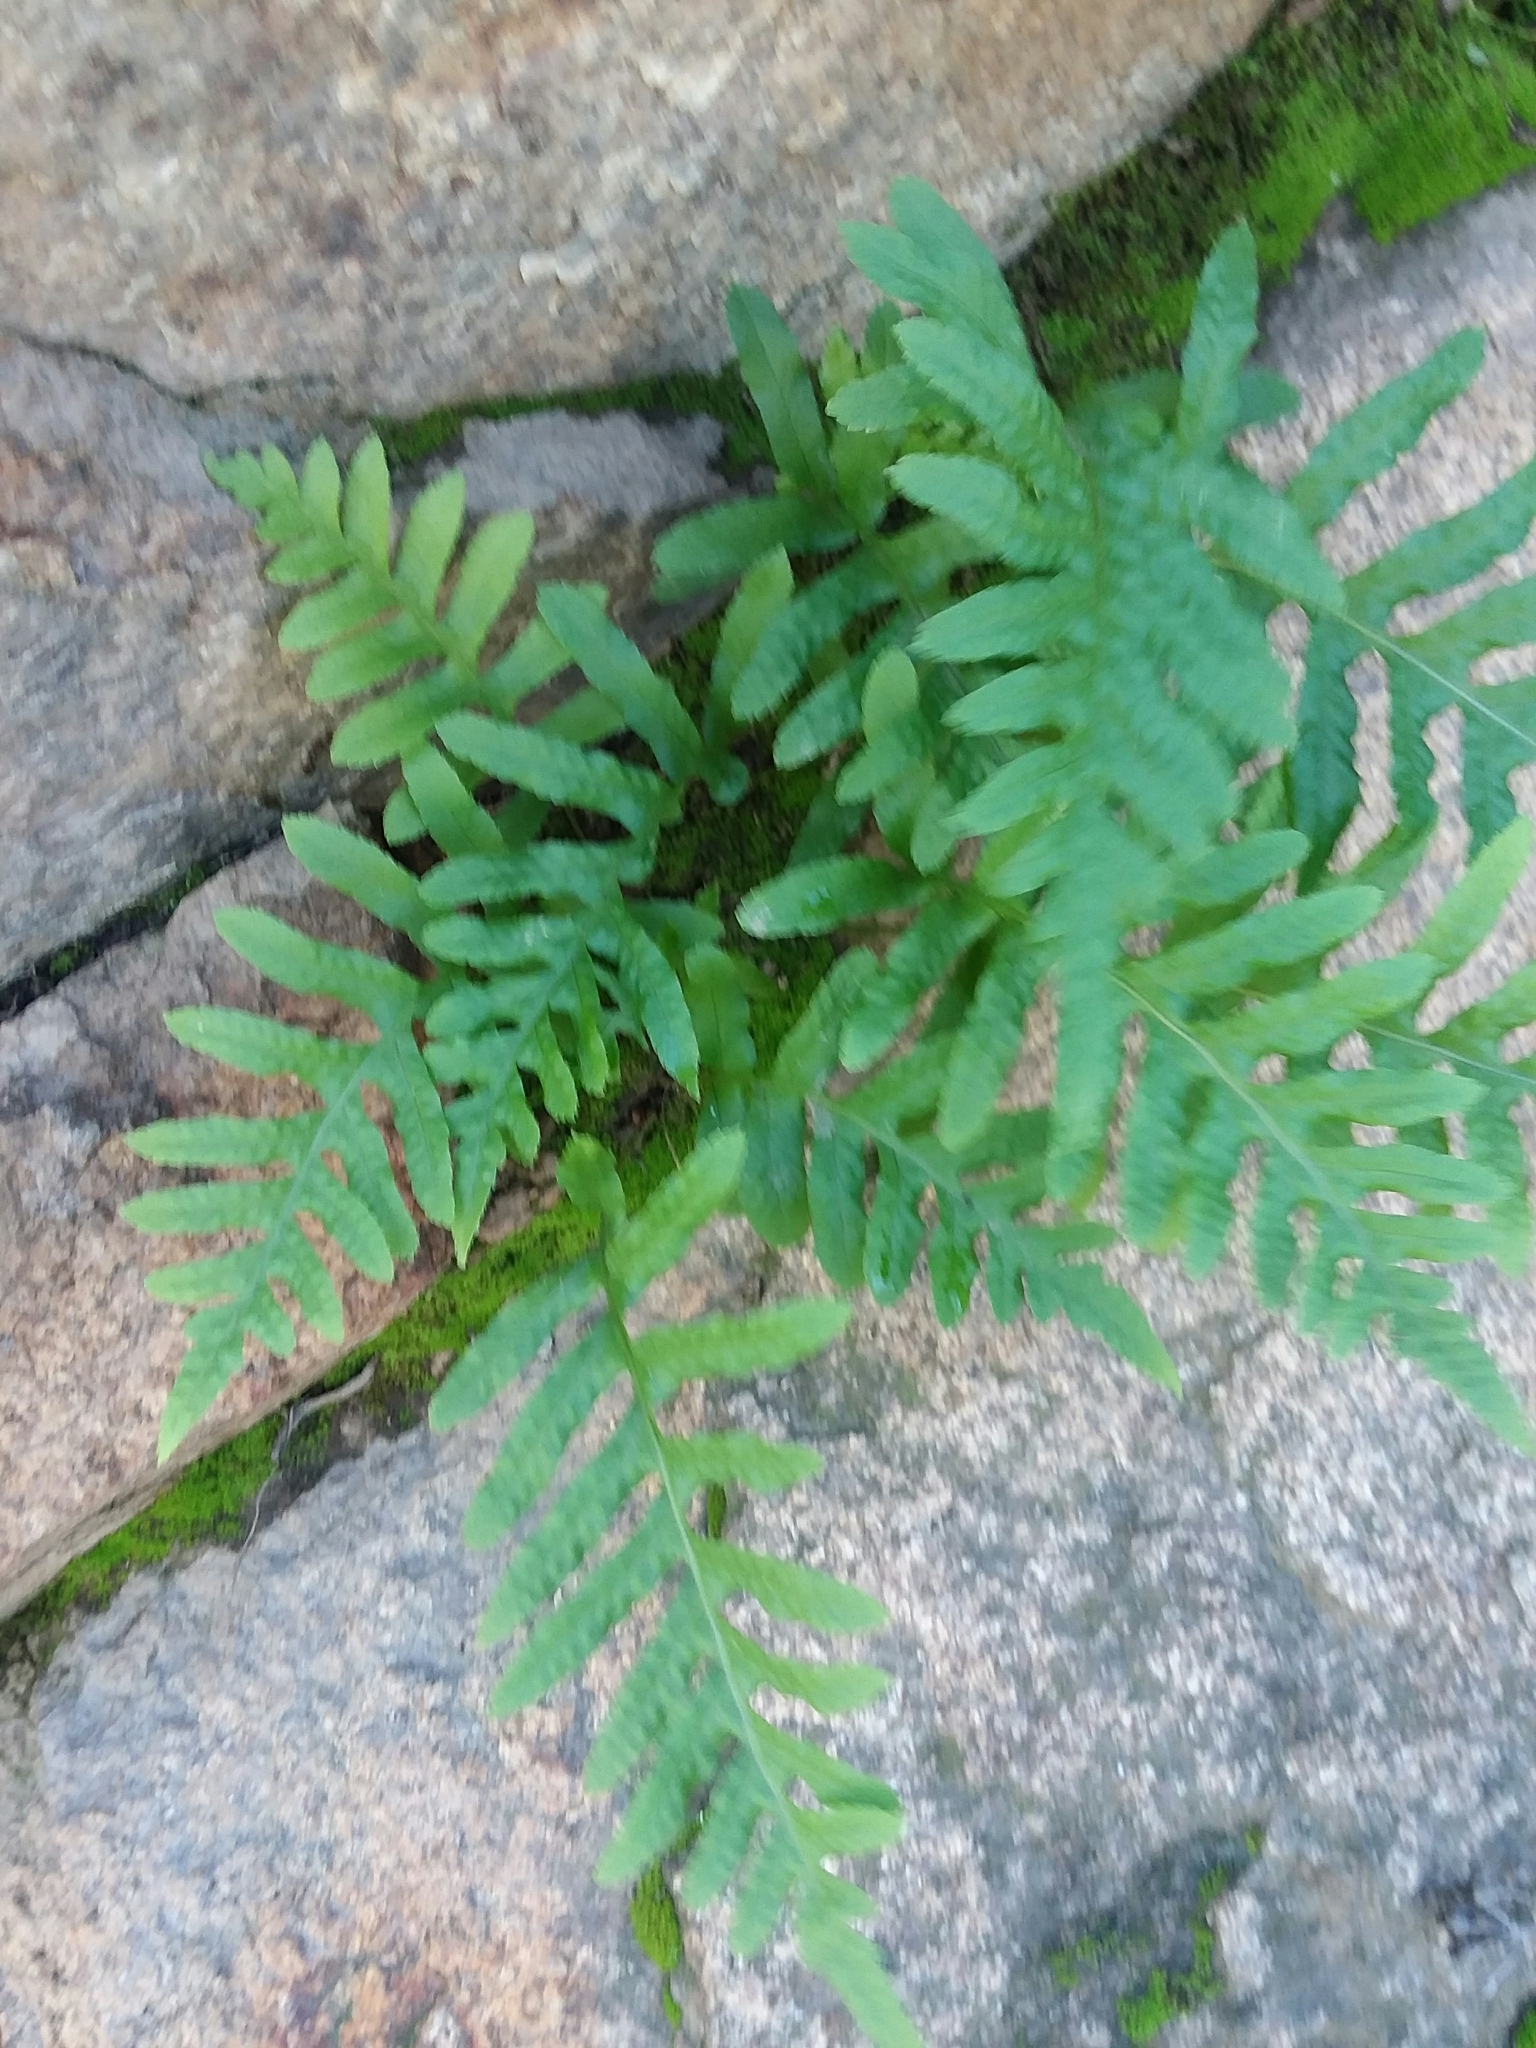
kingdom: Plantae
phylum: Tracheophyta
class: Polypodiopsida
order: Polypodiales
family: Polypodiaceae
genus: Polypodium
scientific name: Polypodium californicum
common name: California polypody
